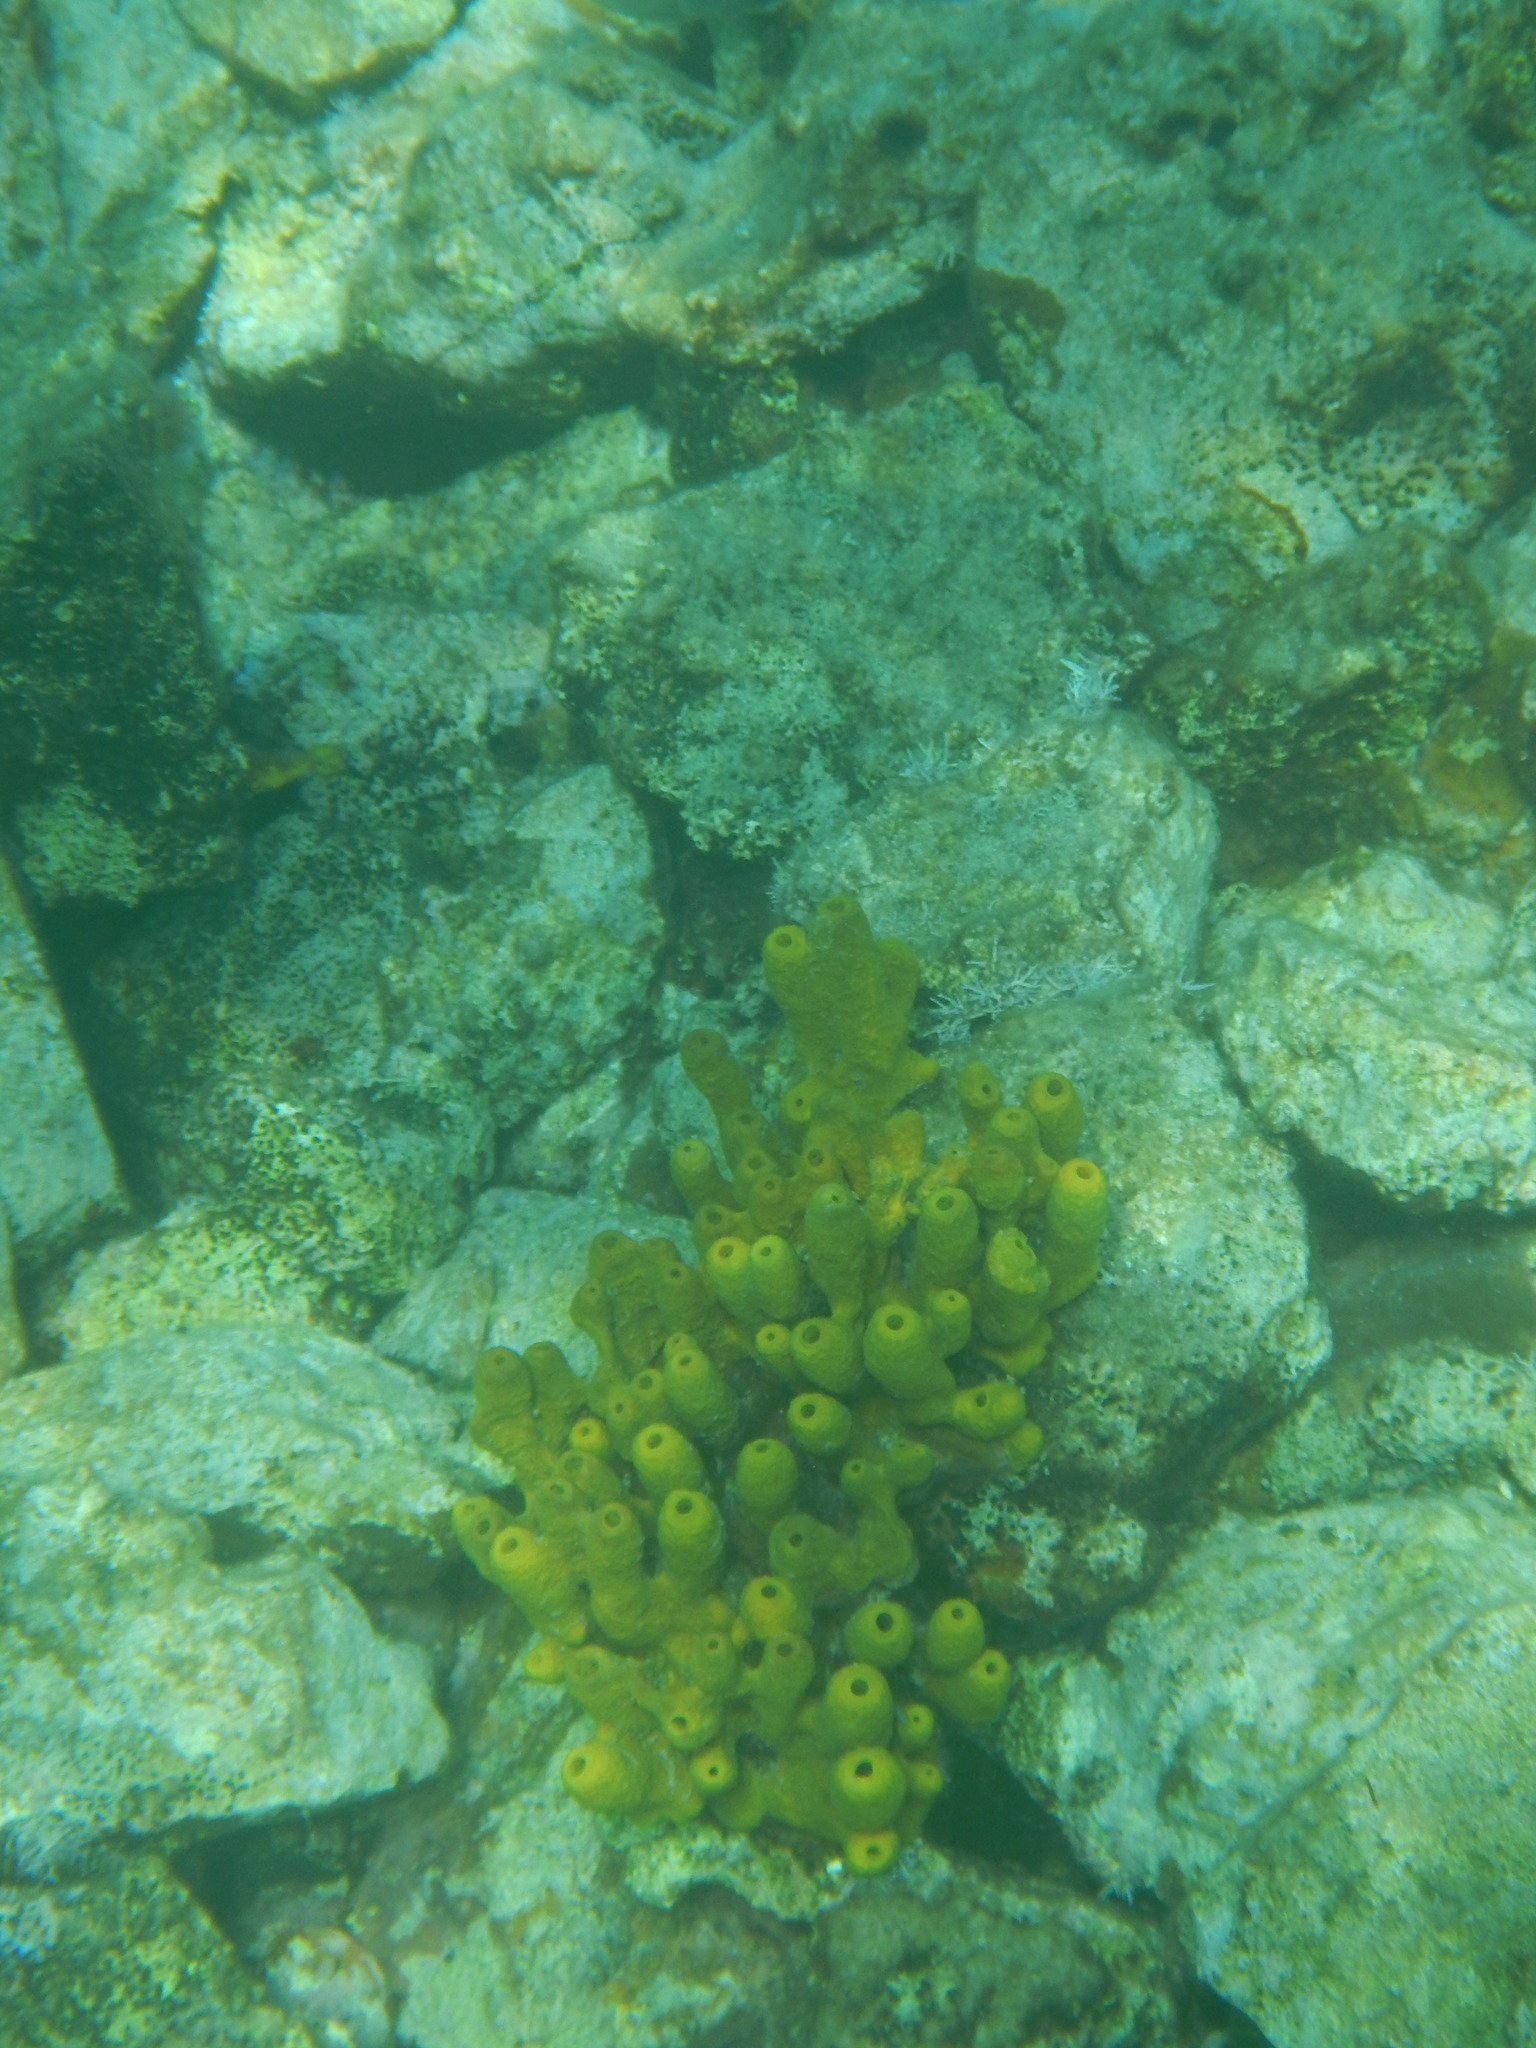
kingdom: Animalia
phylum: Porifera
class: Demospongiae
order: Verongiida
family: Aplysinidae
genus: Aplysina
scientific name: Aplysina aerophoba
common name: Aureate sponge
